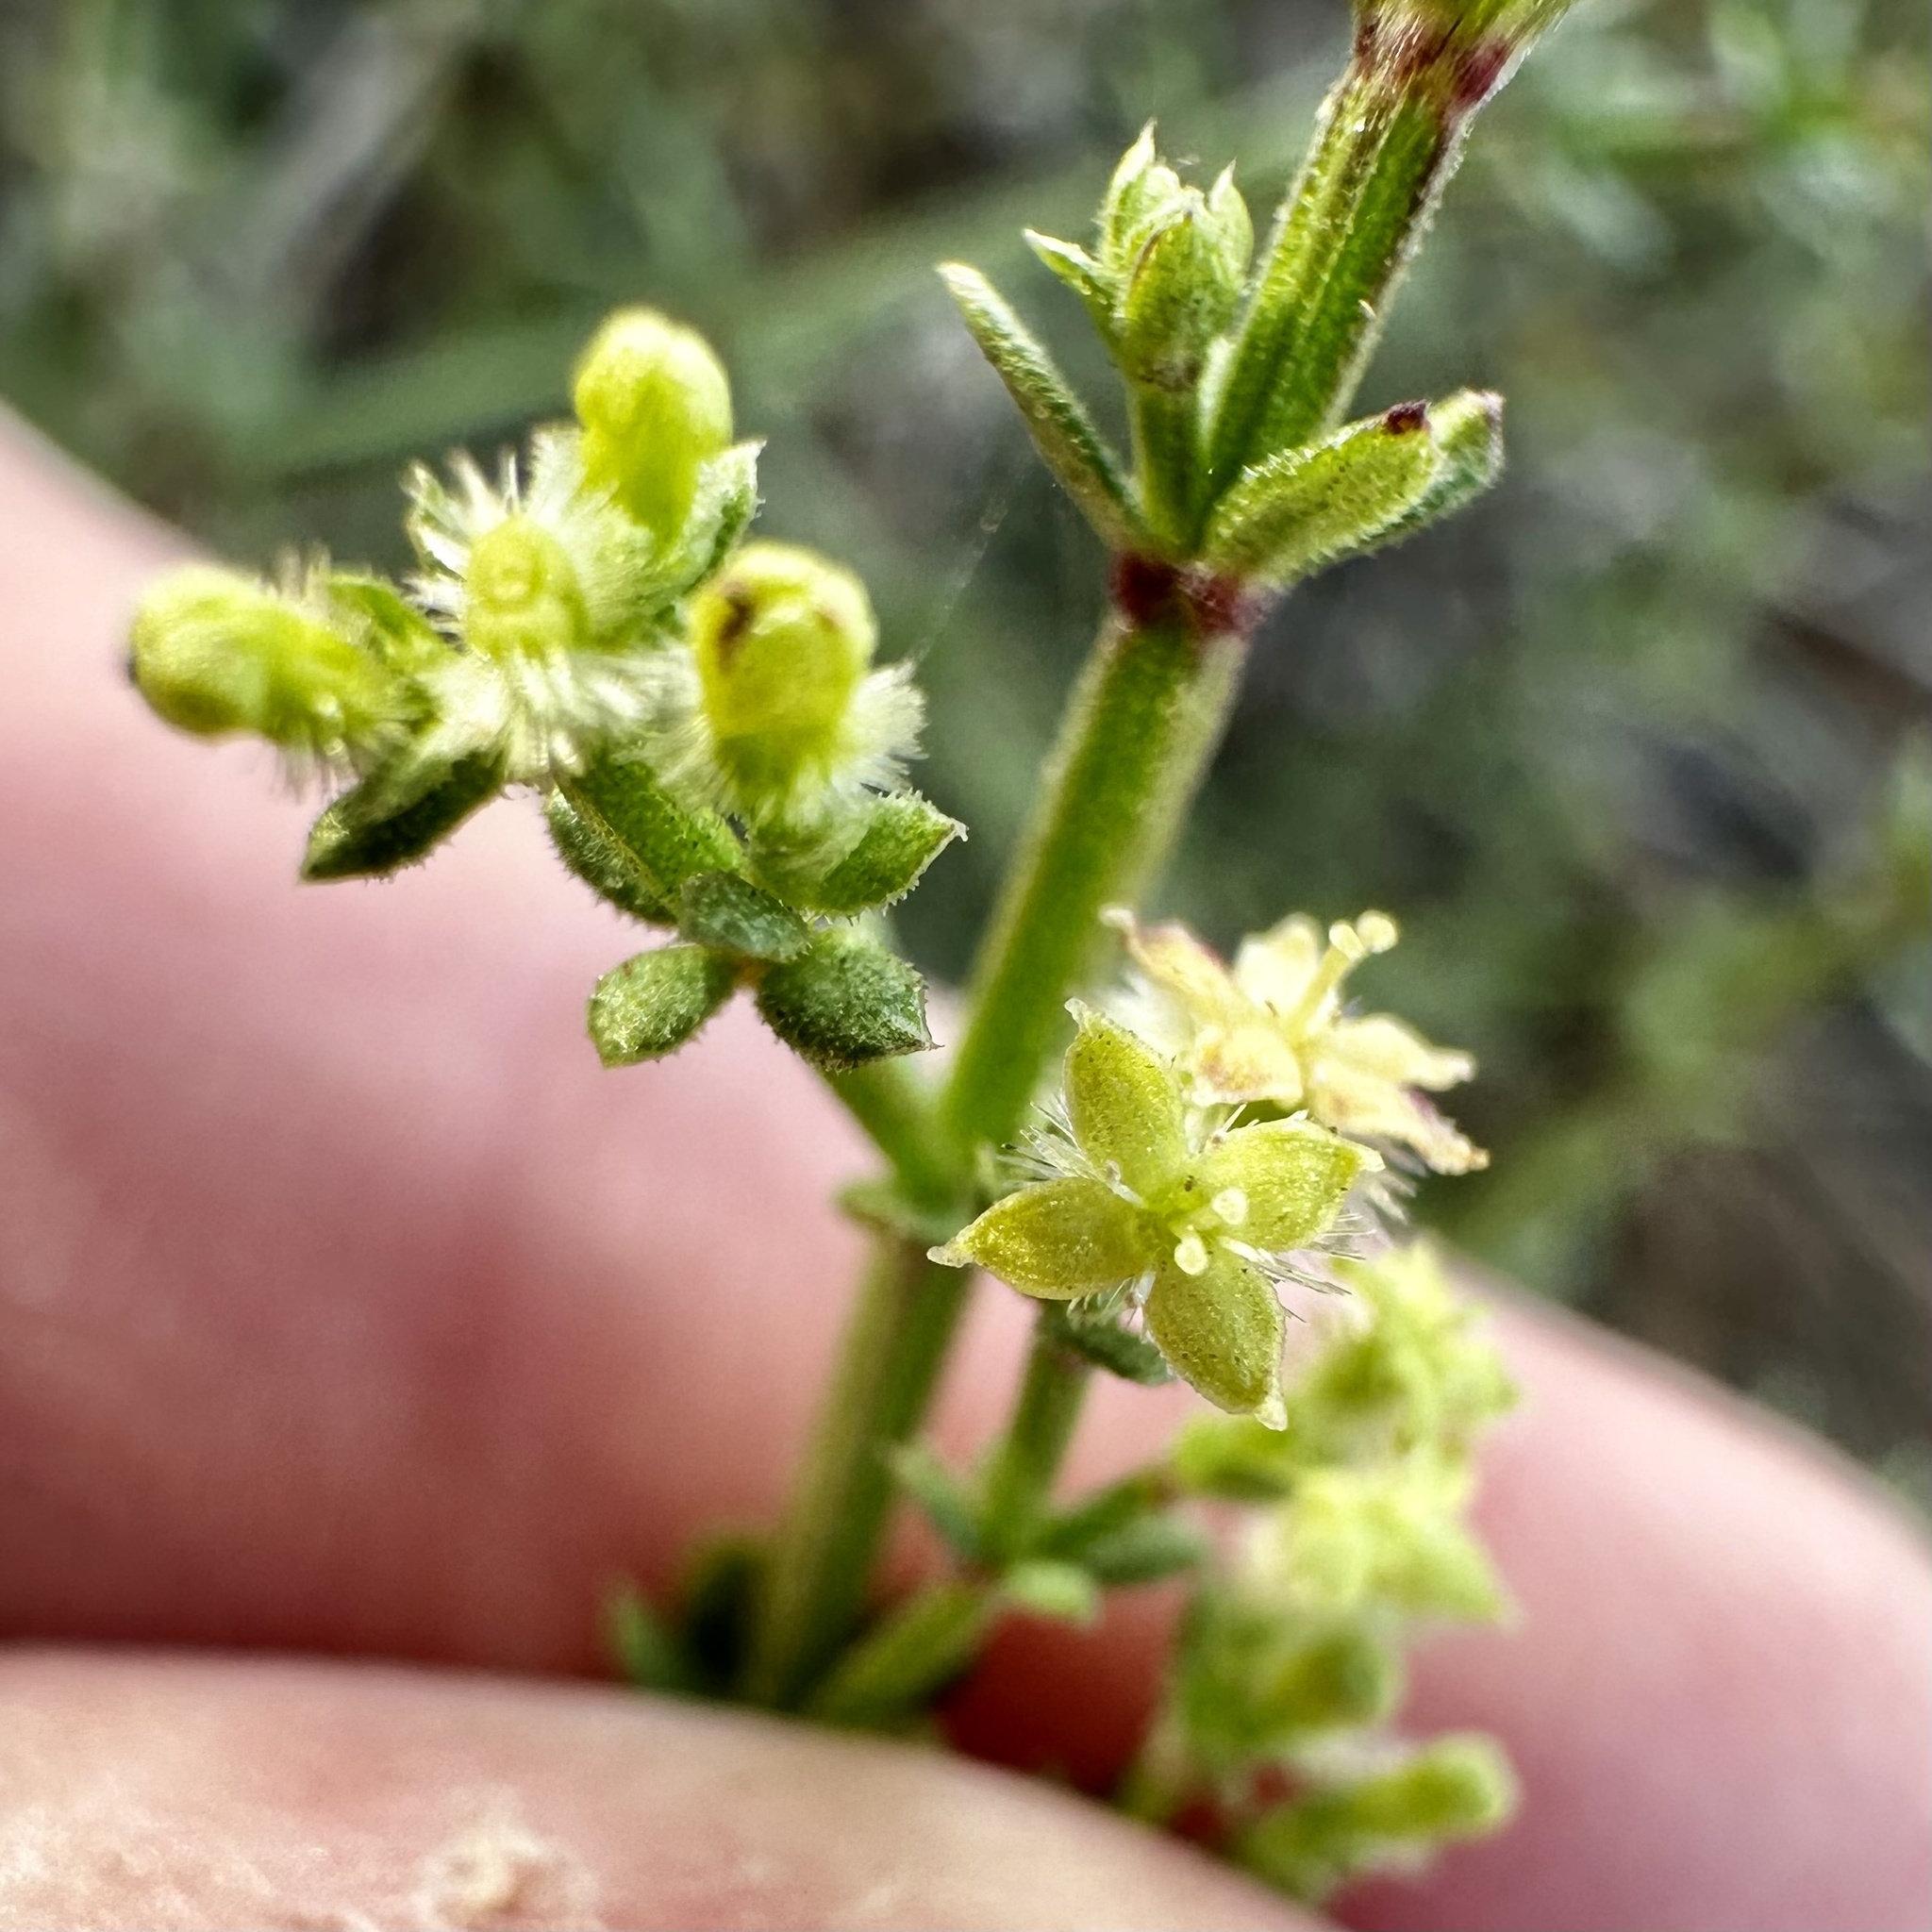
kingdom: Plantae
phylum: Tracheophyta
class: Magnoliopsida
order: Gentianales
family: Rubiaceae
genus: Galium
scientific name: Galium angustifolium
